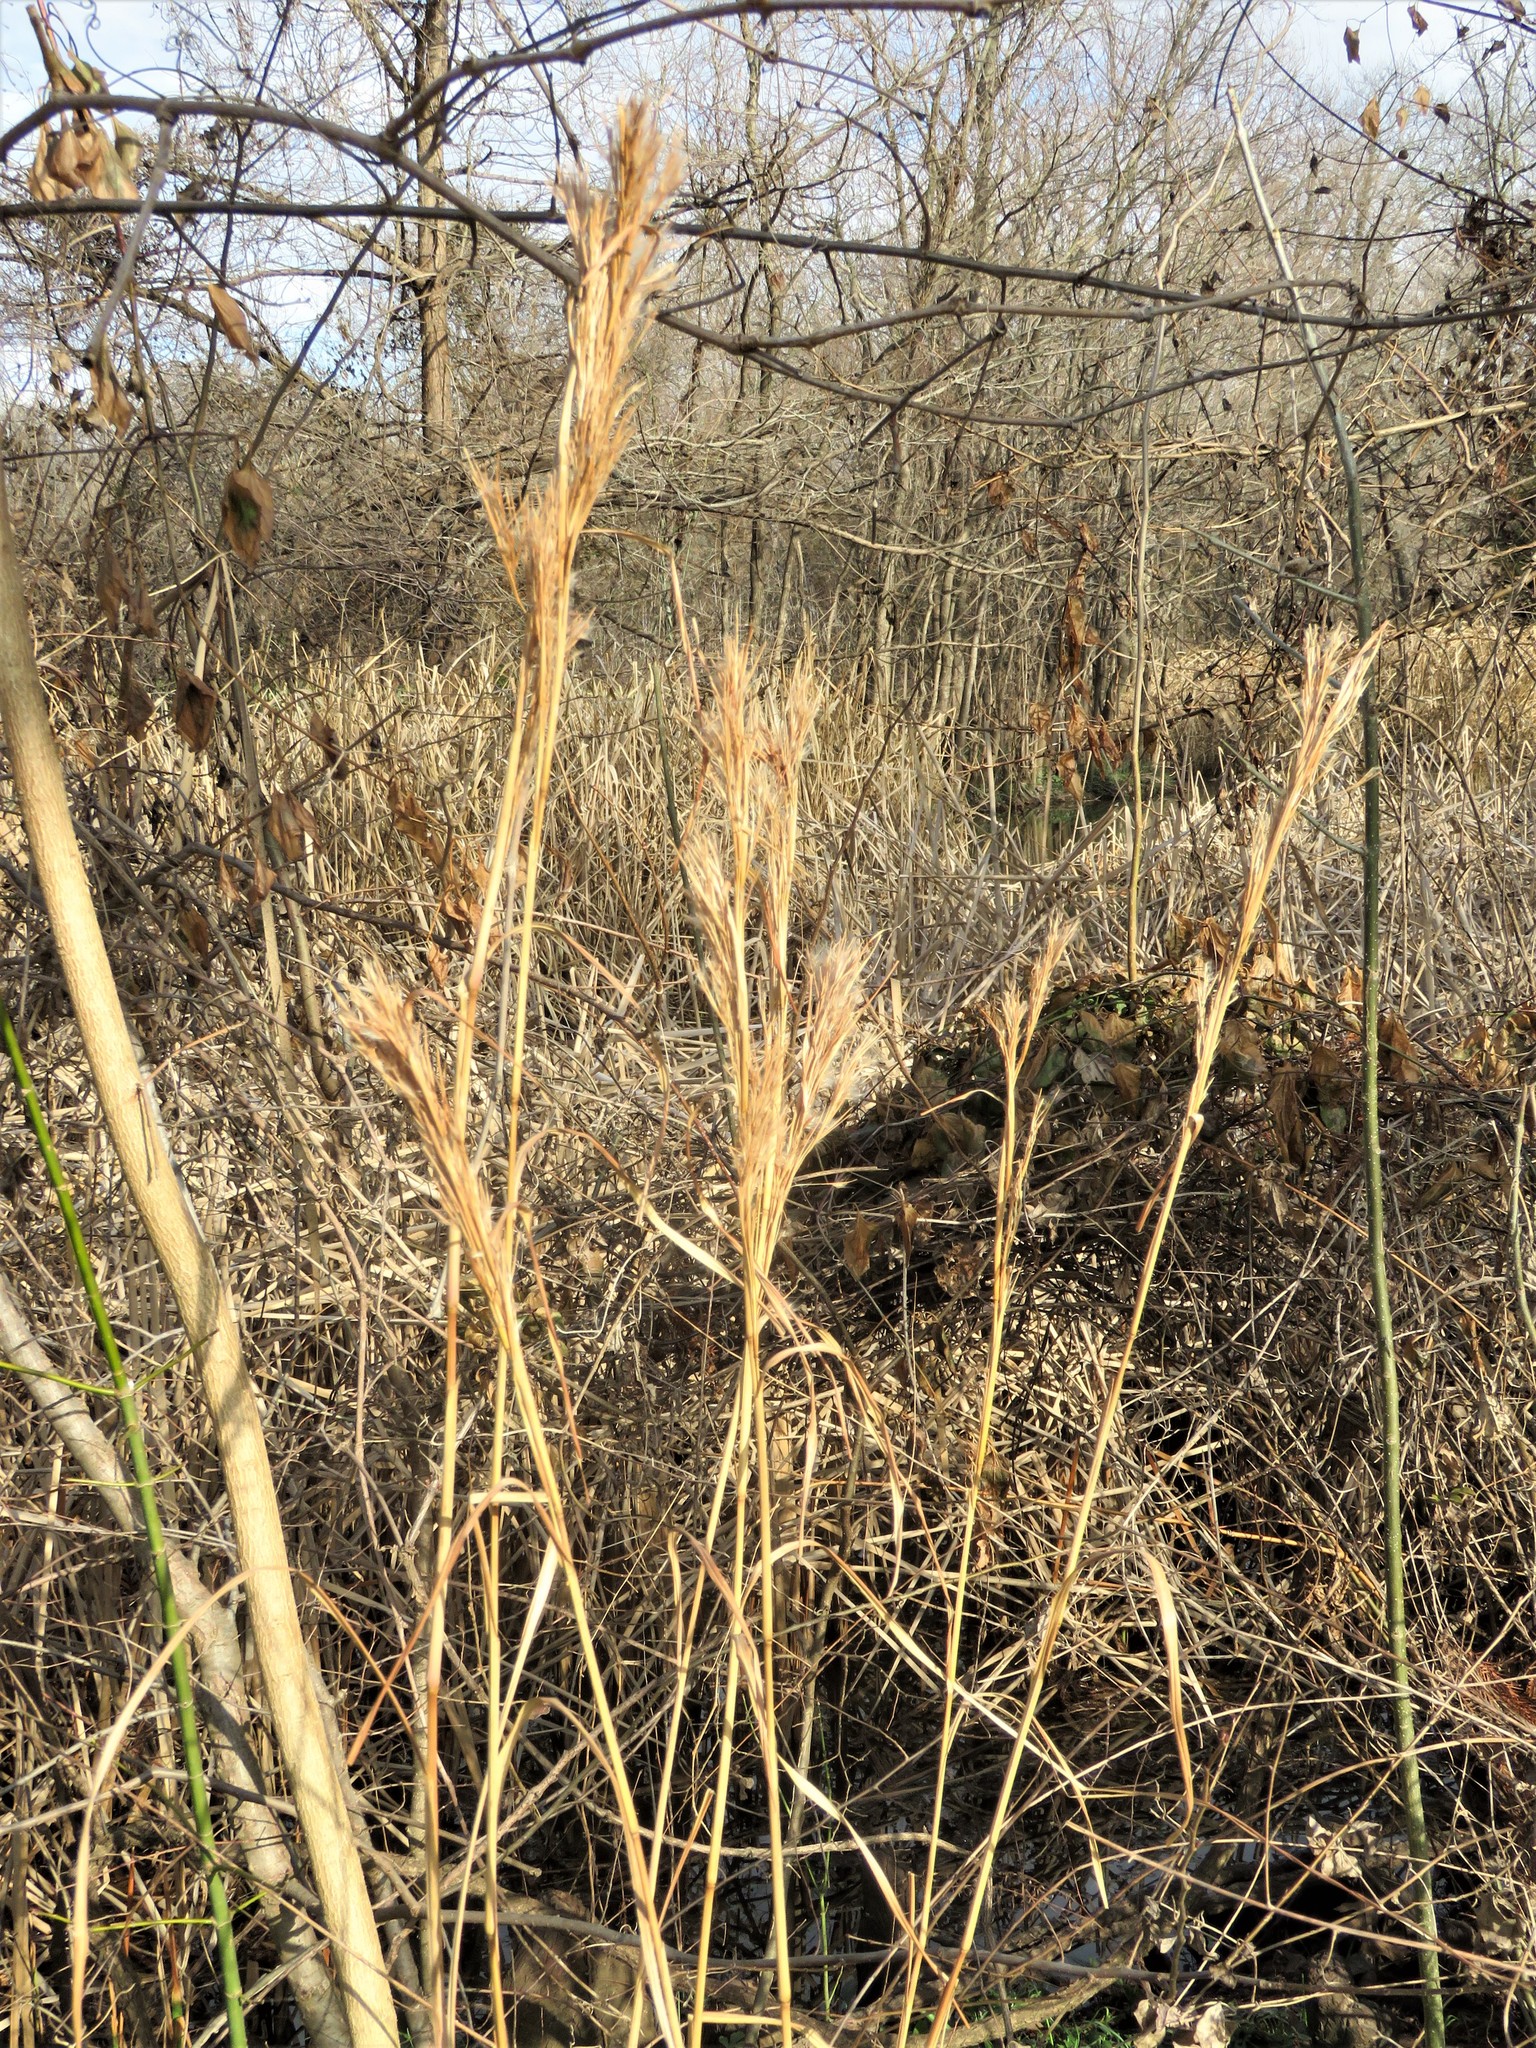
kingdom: Plantae
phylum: Tracheophyta
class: Liliopsida
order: Poales
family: Poaceae
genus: Andropogon
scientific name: Andropogon tenuispatheus
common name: Bushy bluestem
